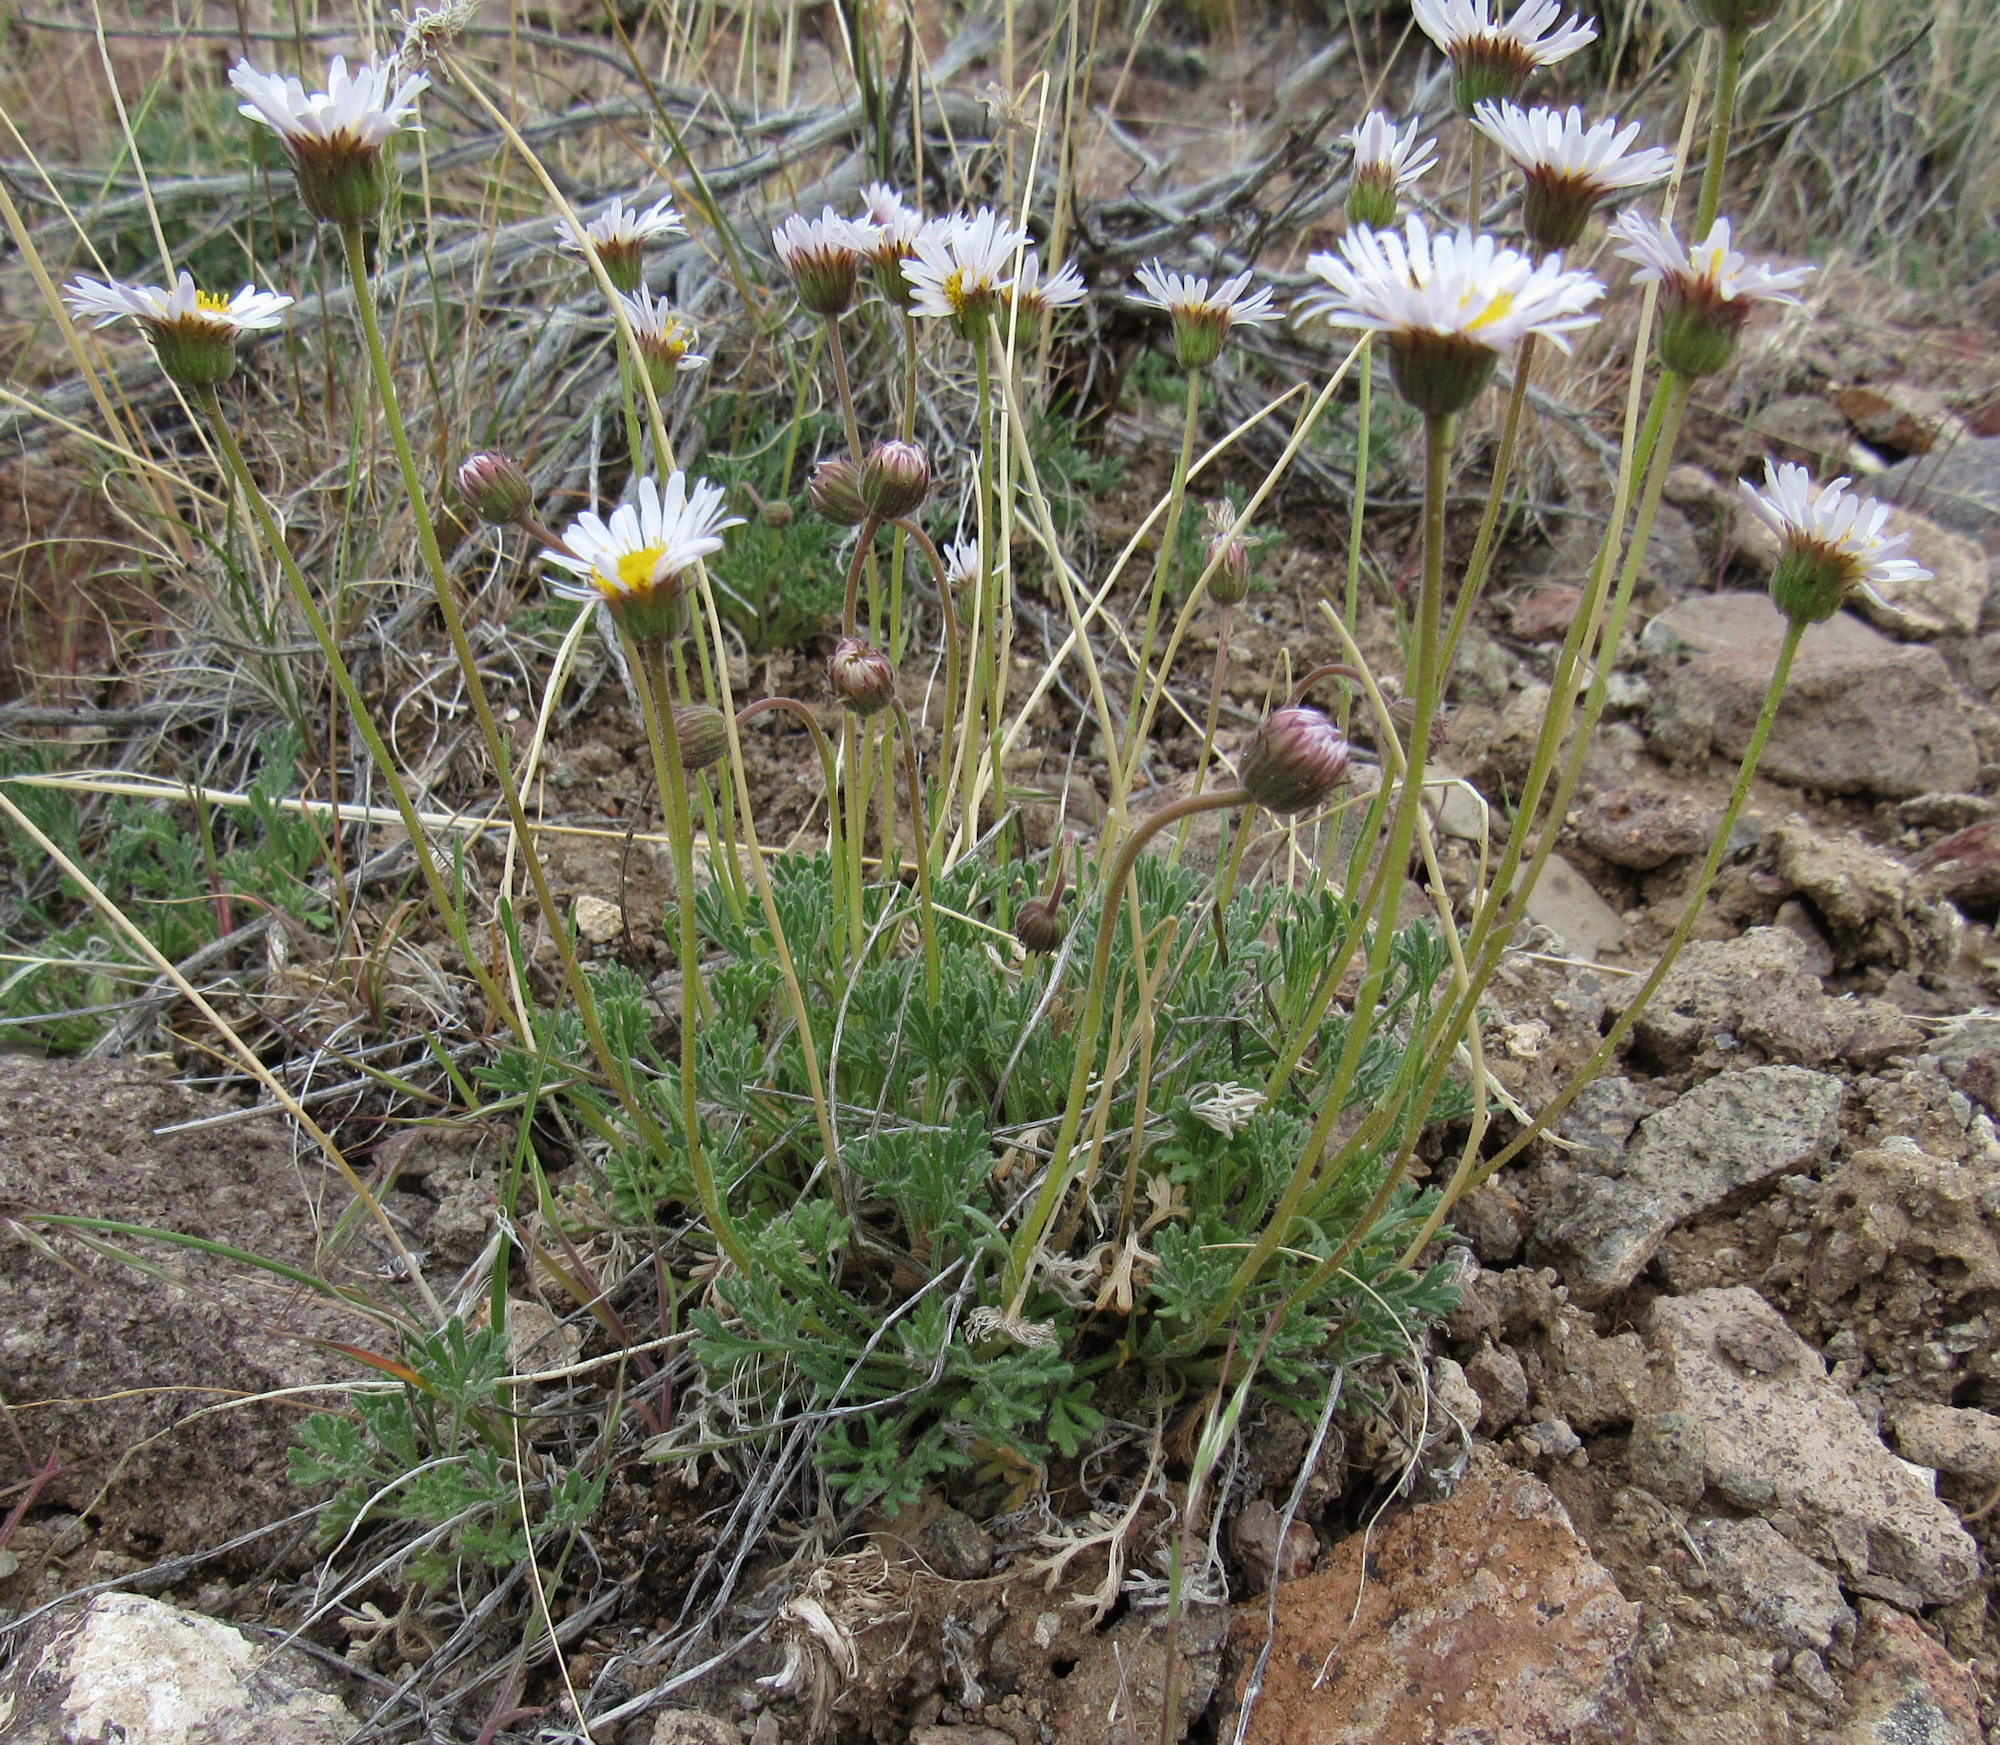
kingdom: Plantae
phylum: Tracheophyta
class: Magnoliopsida
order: Asterales
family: Asteraceae
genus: Erigeron
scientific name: Erigeron compositus
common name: Dwarf mountain fleabane
